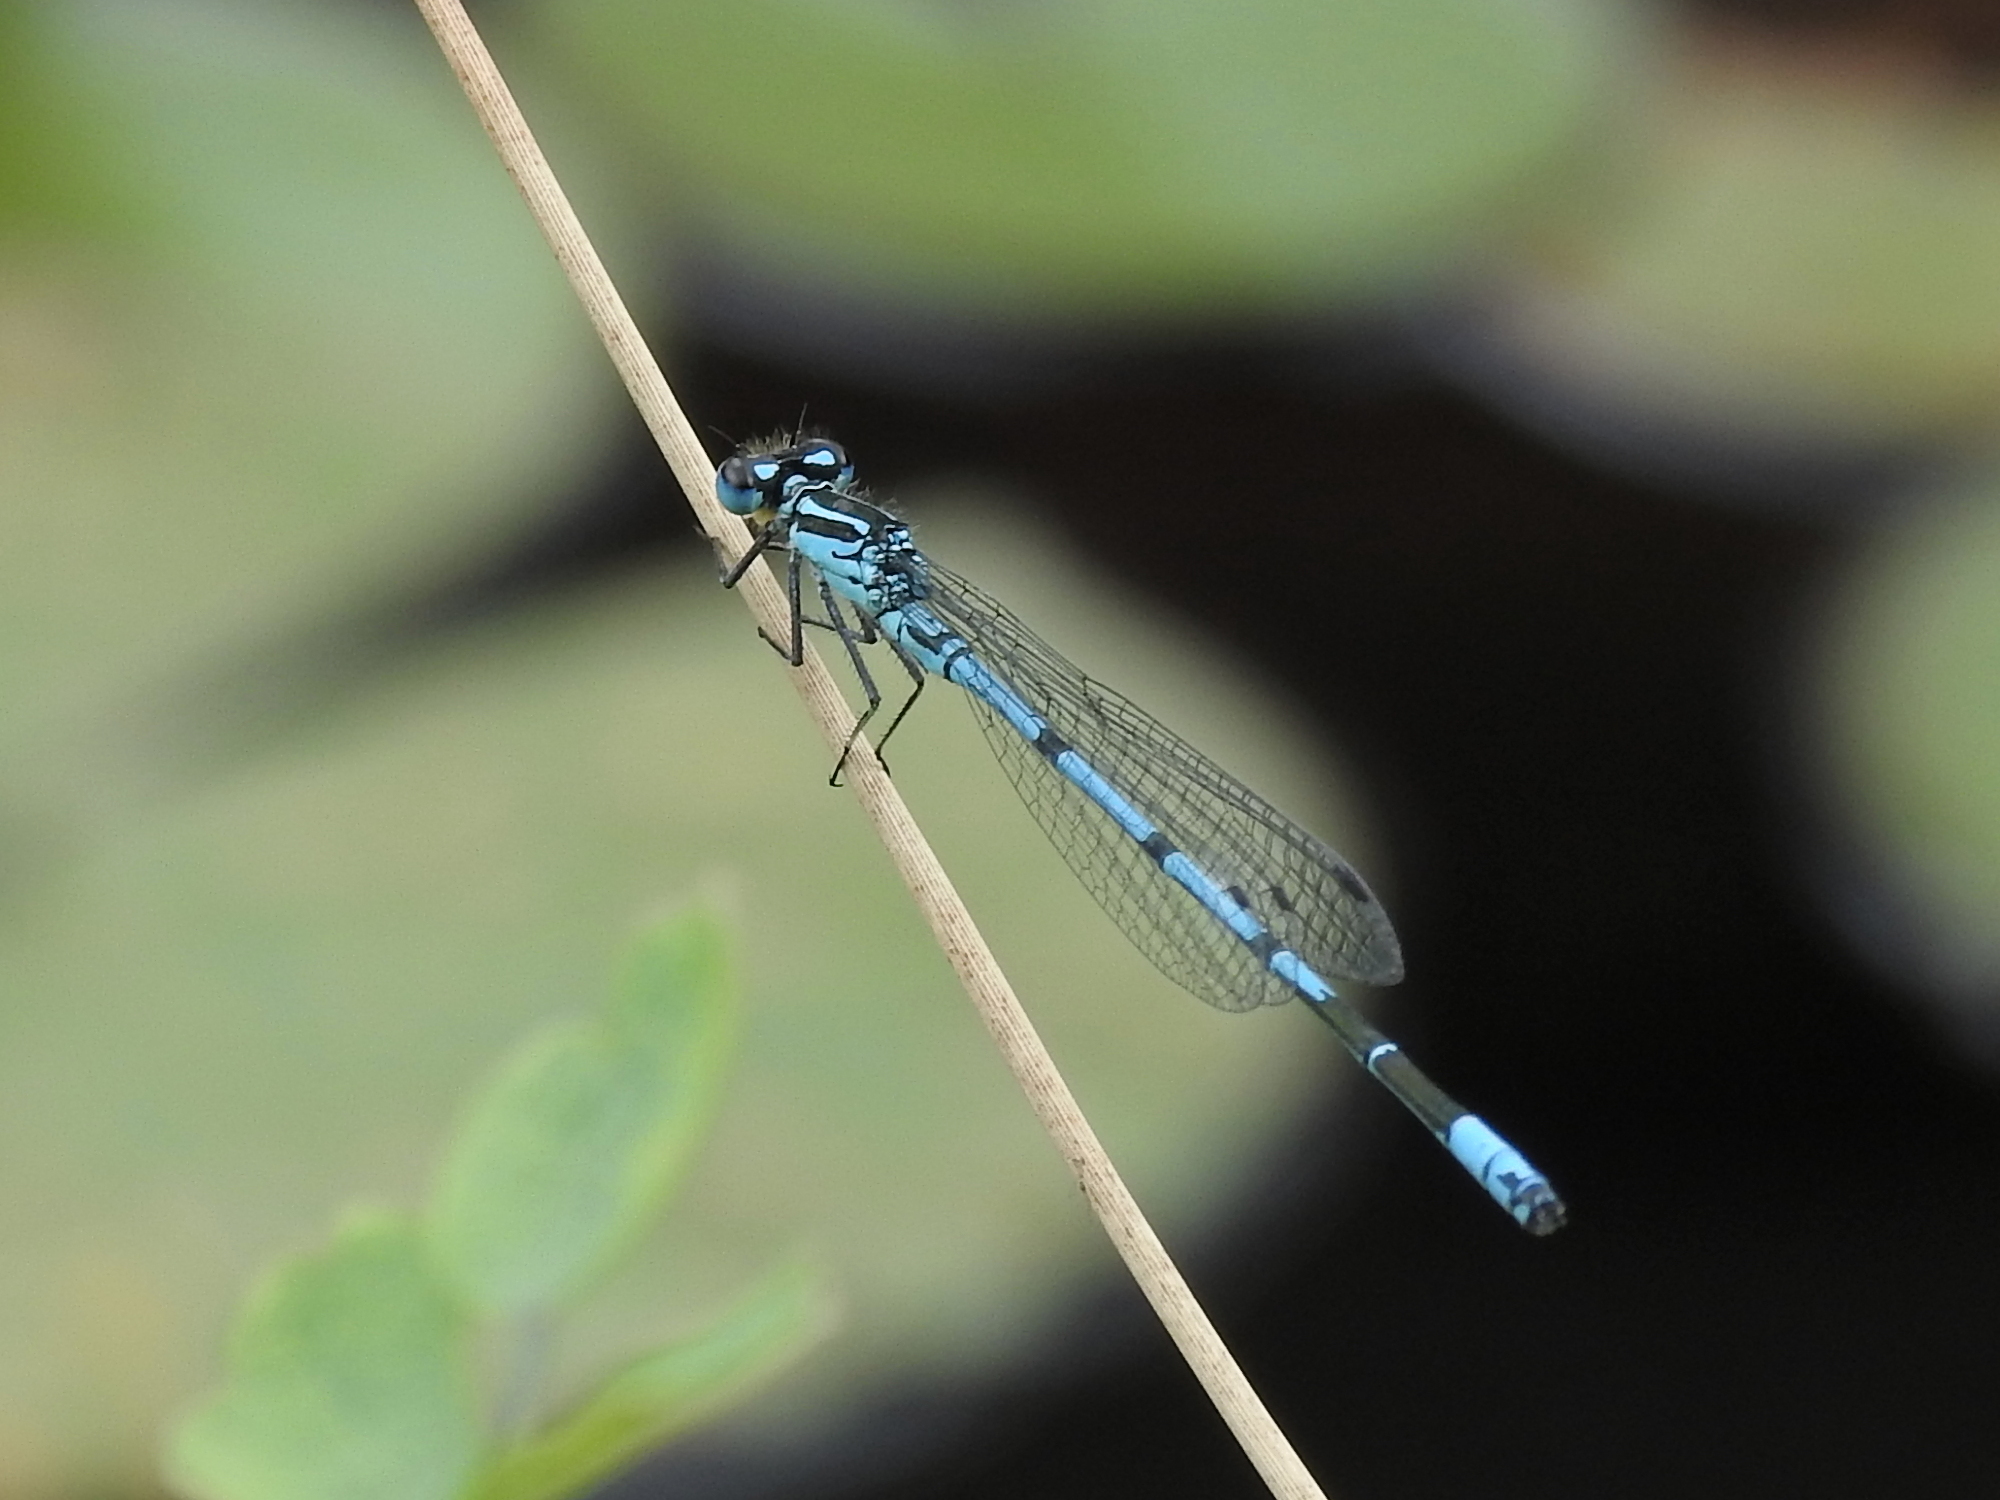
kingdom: Animalia
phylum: Arthropoda
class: Insecta
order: Odonata
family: Coenagrionidae
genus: Coenagrion
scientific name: Coenagrion puella
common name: Azure damselfly
